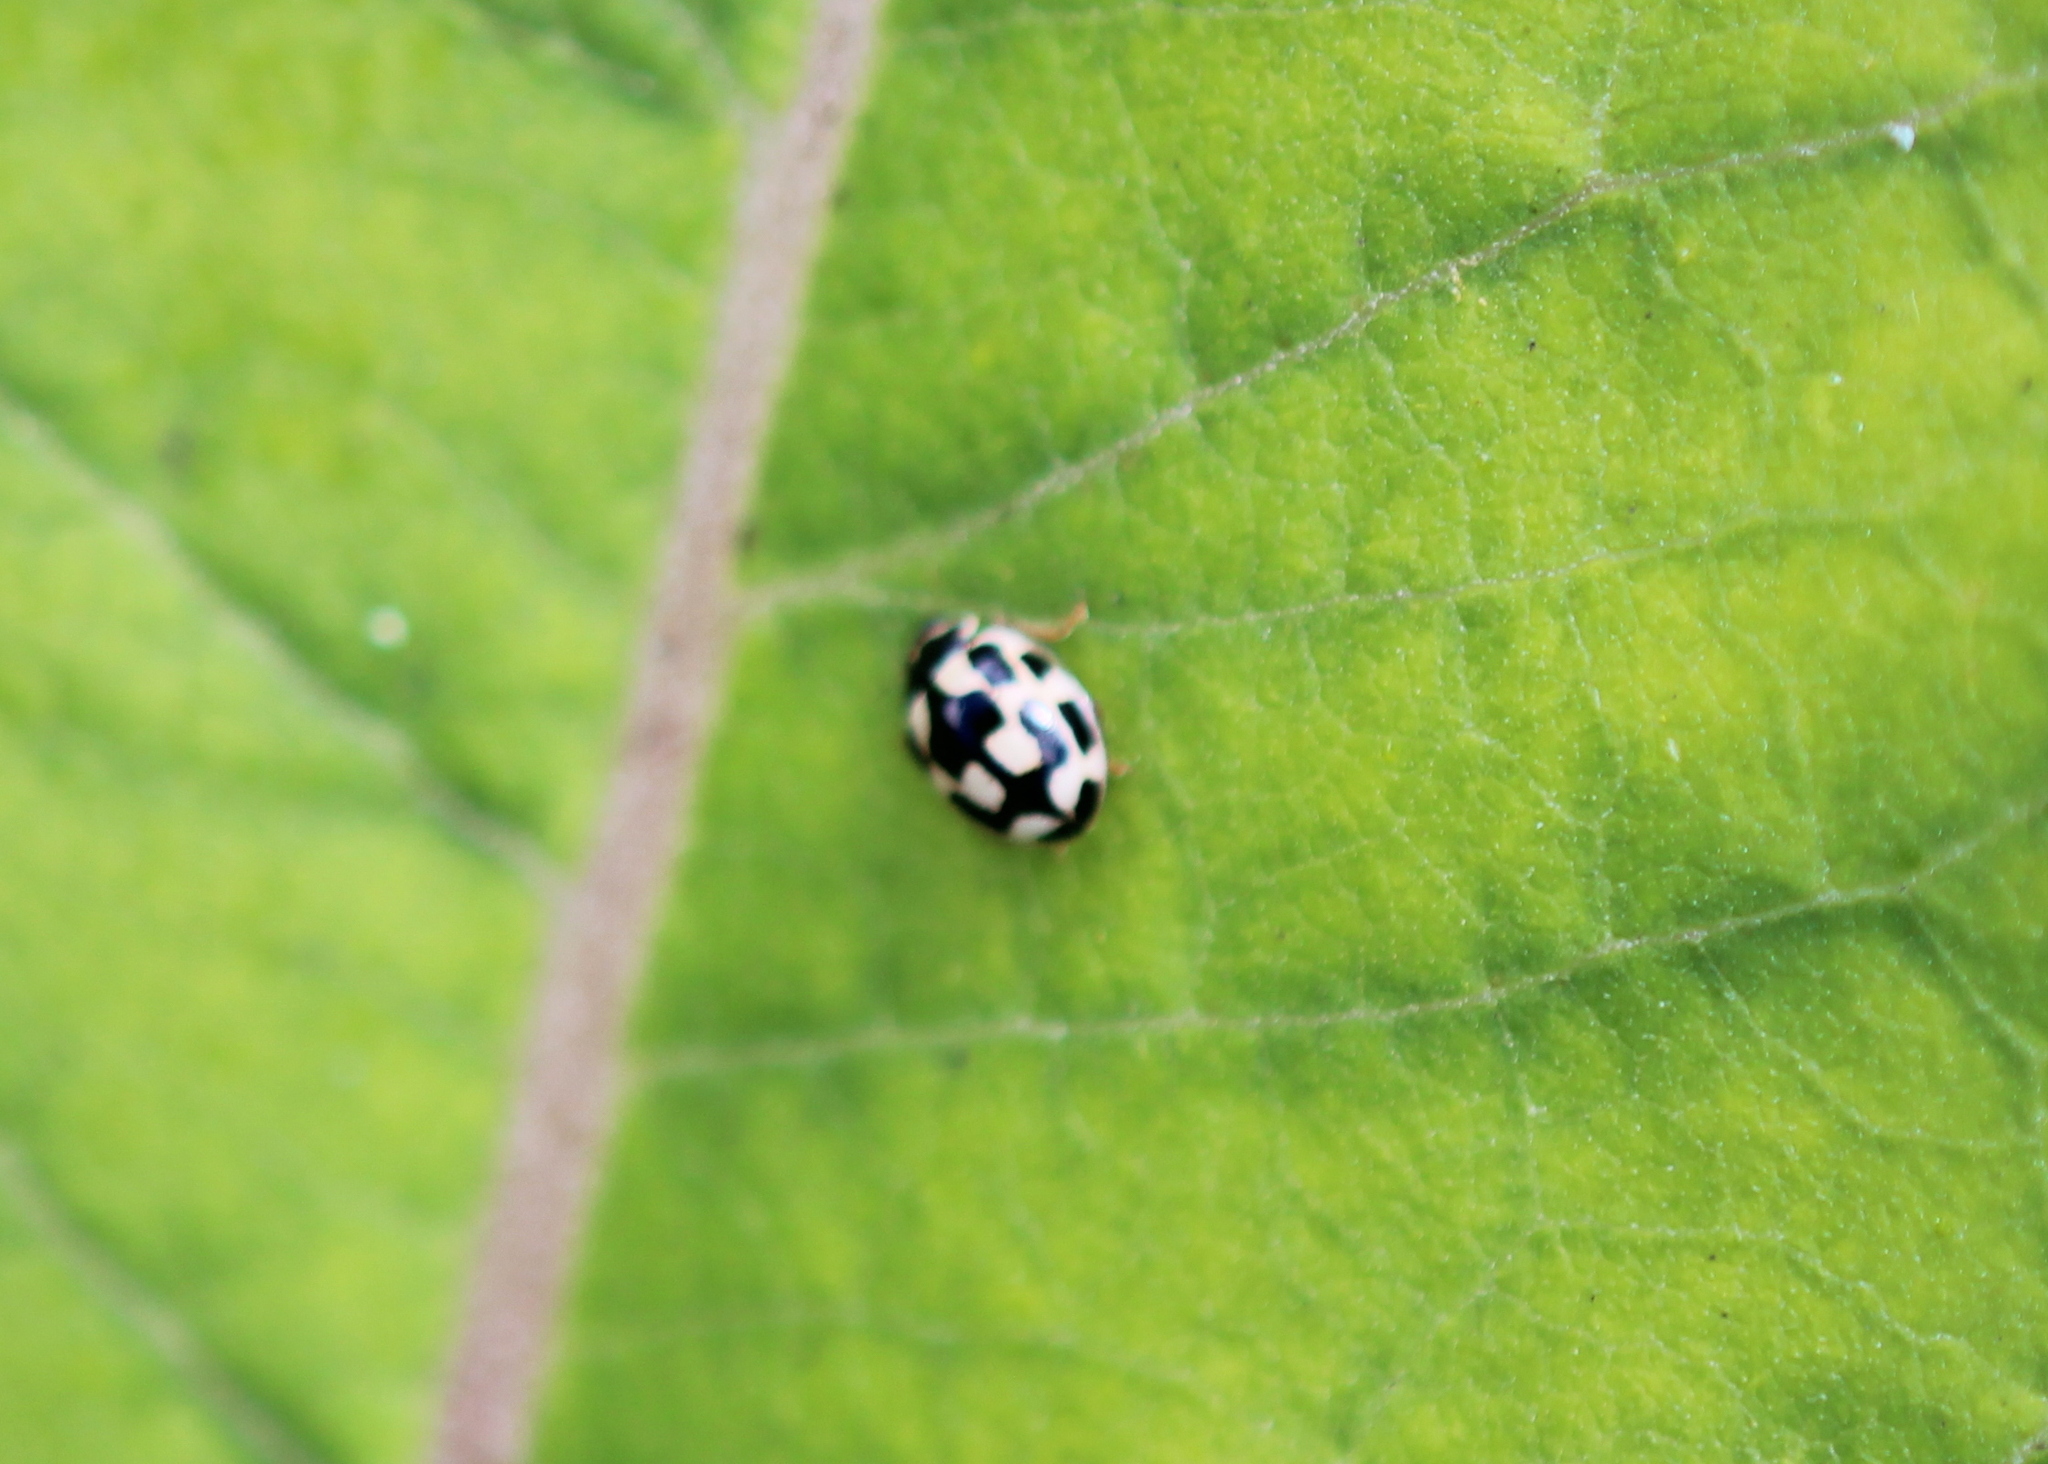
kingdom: Animalia
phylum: Arthropoda
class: Insecta
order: Coleoptera
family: Coccinellidae
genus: Propylaea
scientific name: Propylaea quatuordecimpunctata
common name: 14-spotted ladybird beetle
